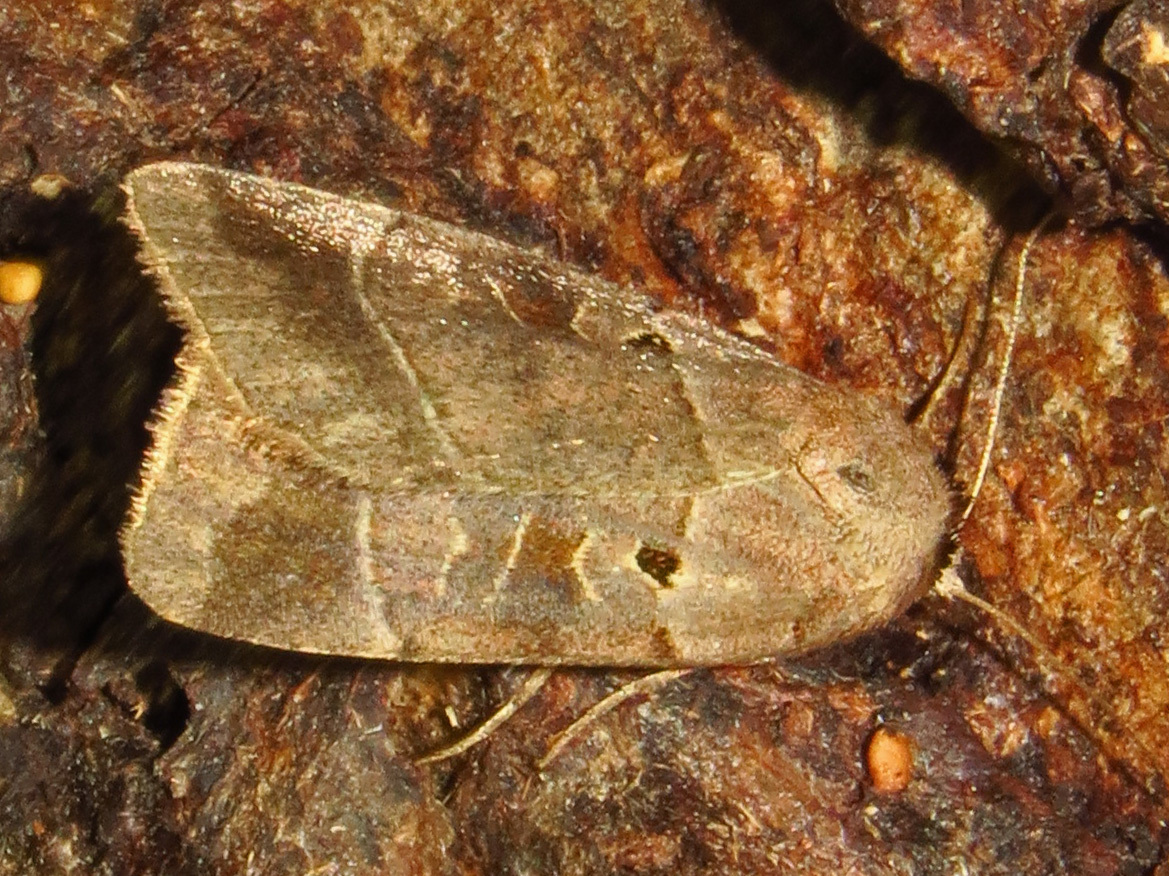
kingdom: Animalia
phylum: Arthropoda
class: Insecta
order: Lepidoptera
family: Noctuidae
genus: Agnorisma
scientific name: Agnorisma badinodis
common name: Pale-banded dart
